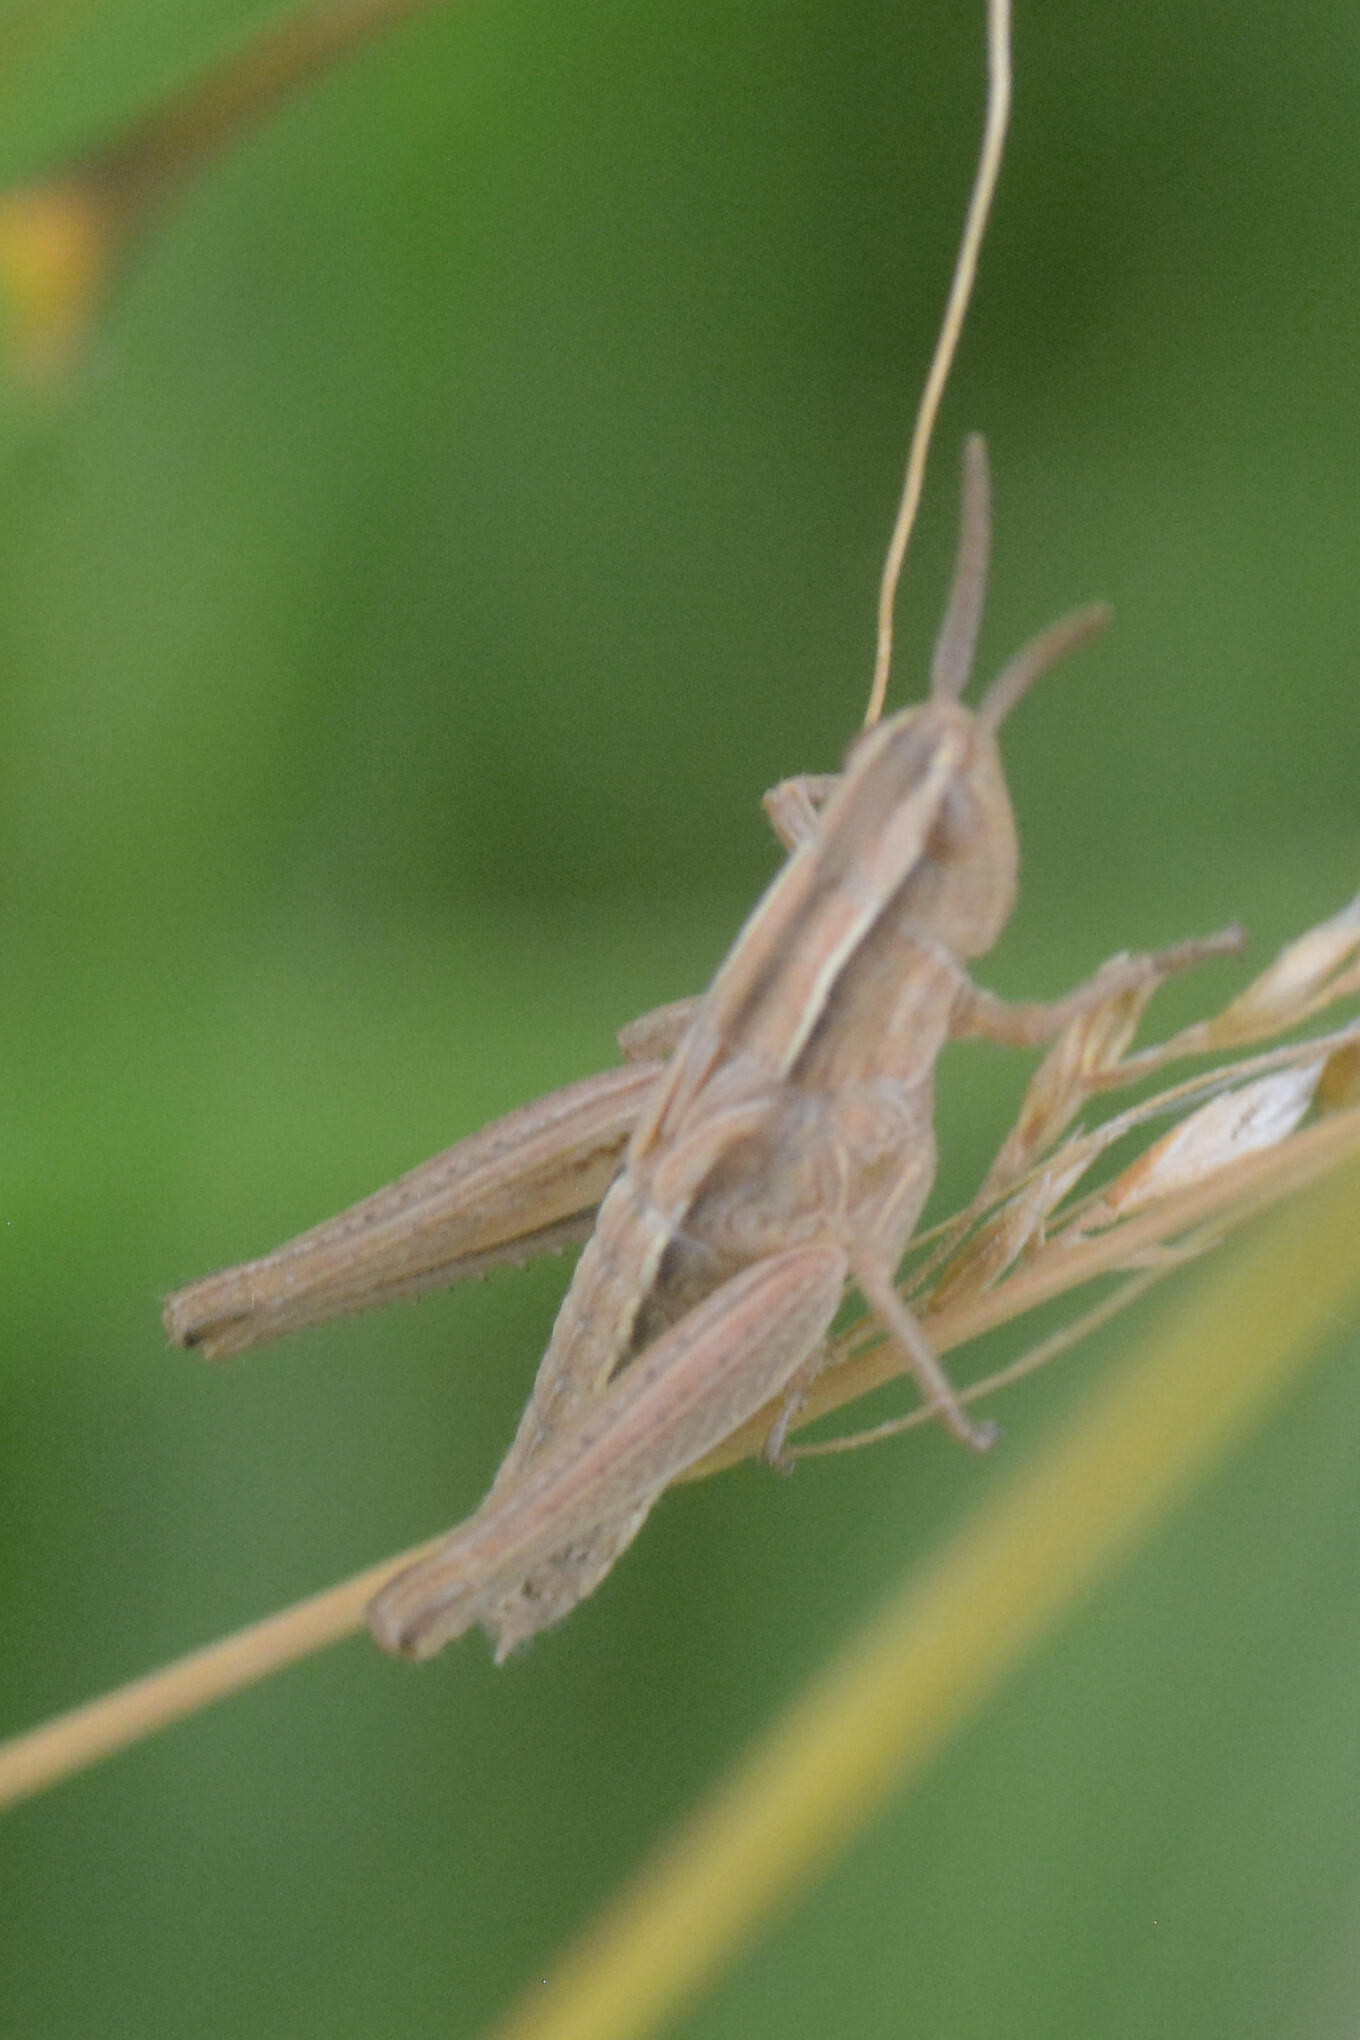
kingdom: Animalia
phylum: Arthropoda
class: Insecta
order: Orthoptera
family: Acrididae
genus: Chorthippus
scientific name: Chorthippus albomarginatus
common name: Lesser marsh grasshopper
